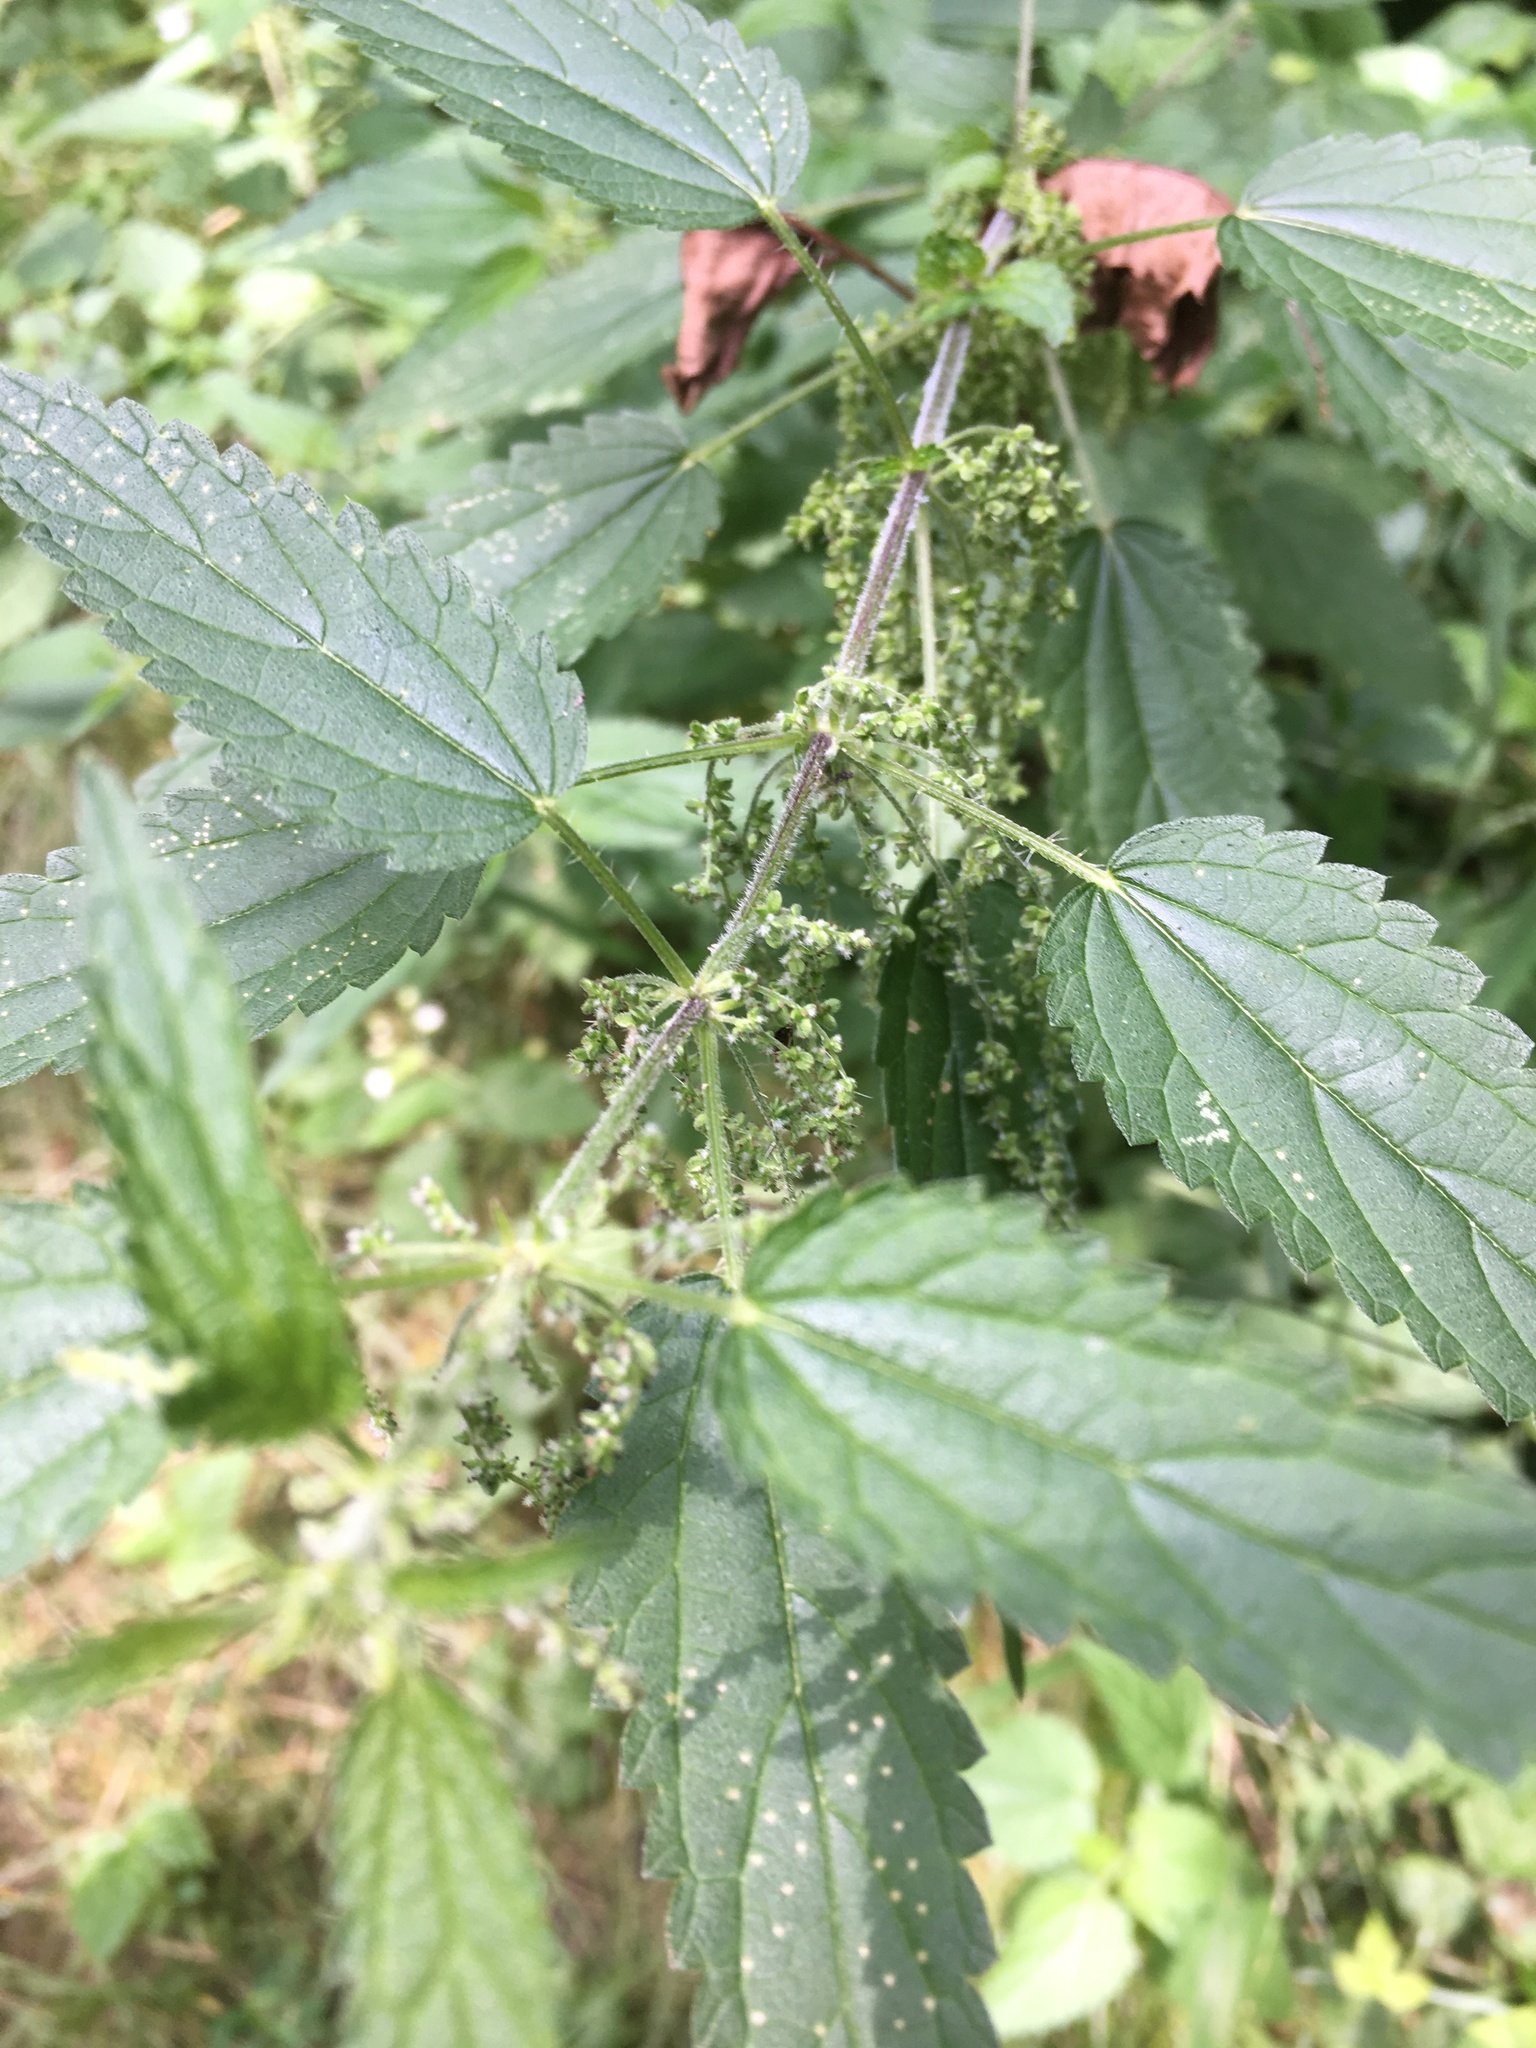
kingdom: Plantae
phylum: Tracheophyta
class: Magnoliopsida
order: Rosales
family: Urticaceae
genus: Urtica
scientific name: Urtica dioica
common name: Common nettle
